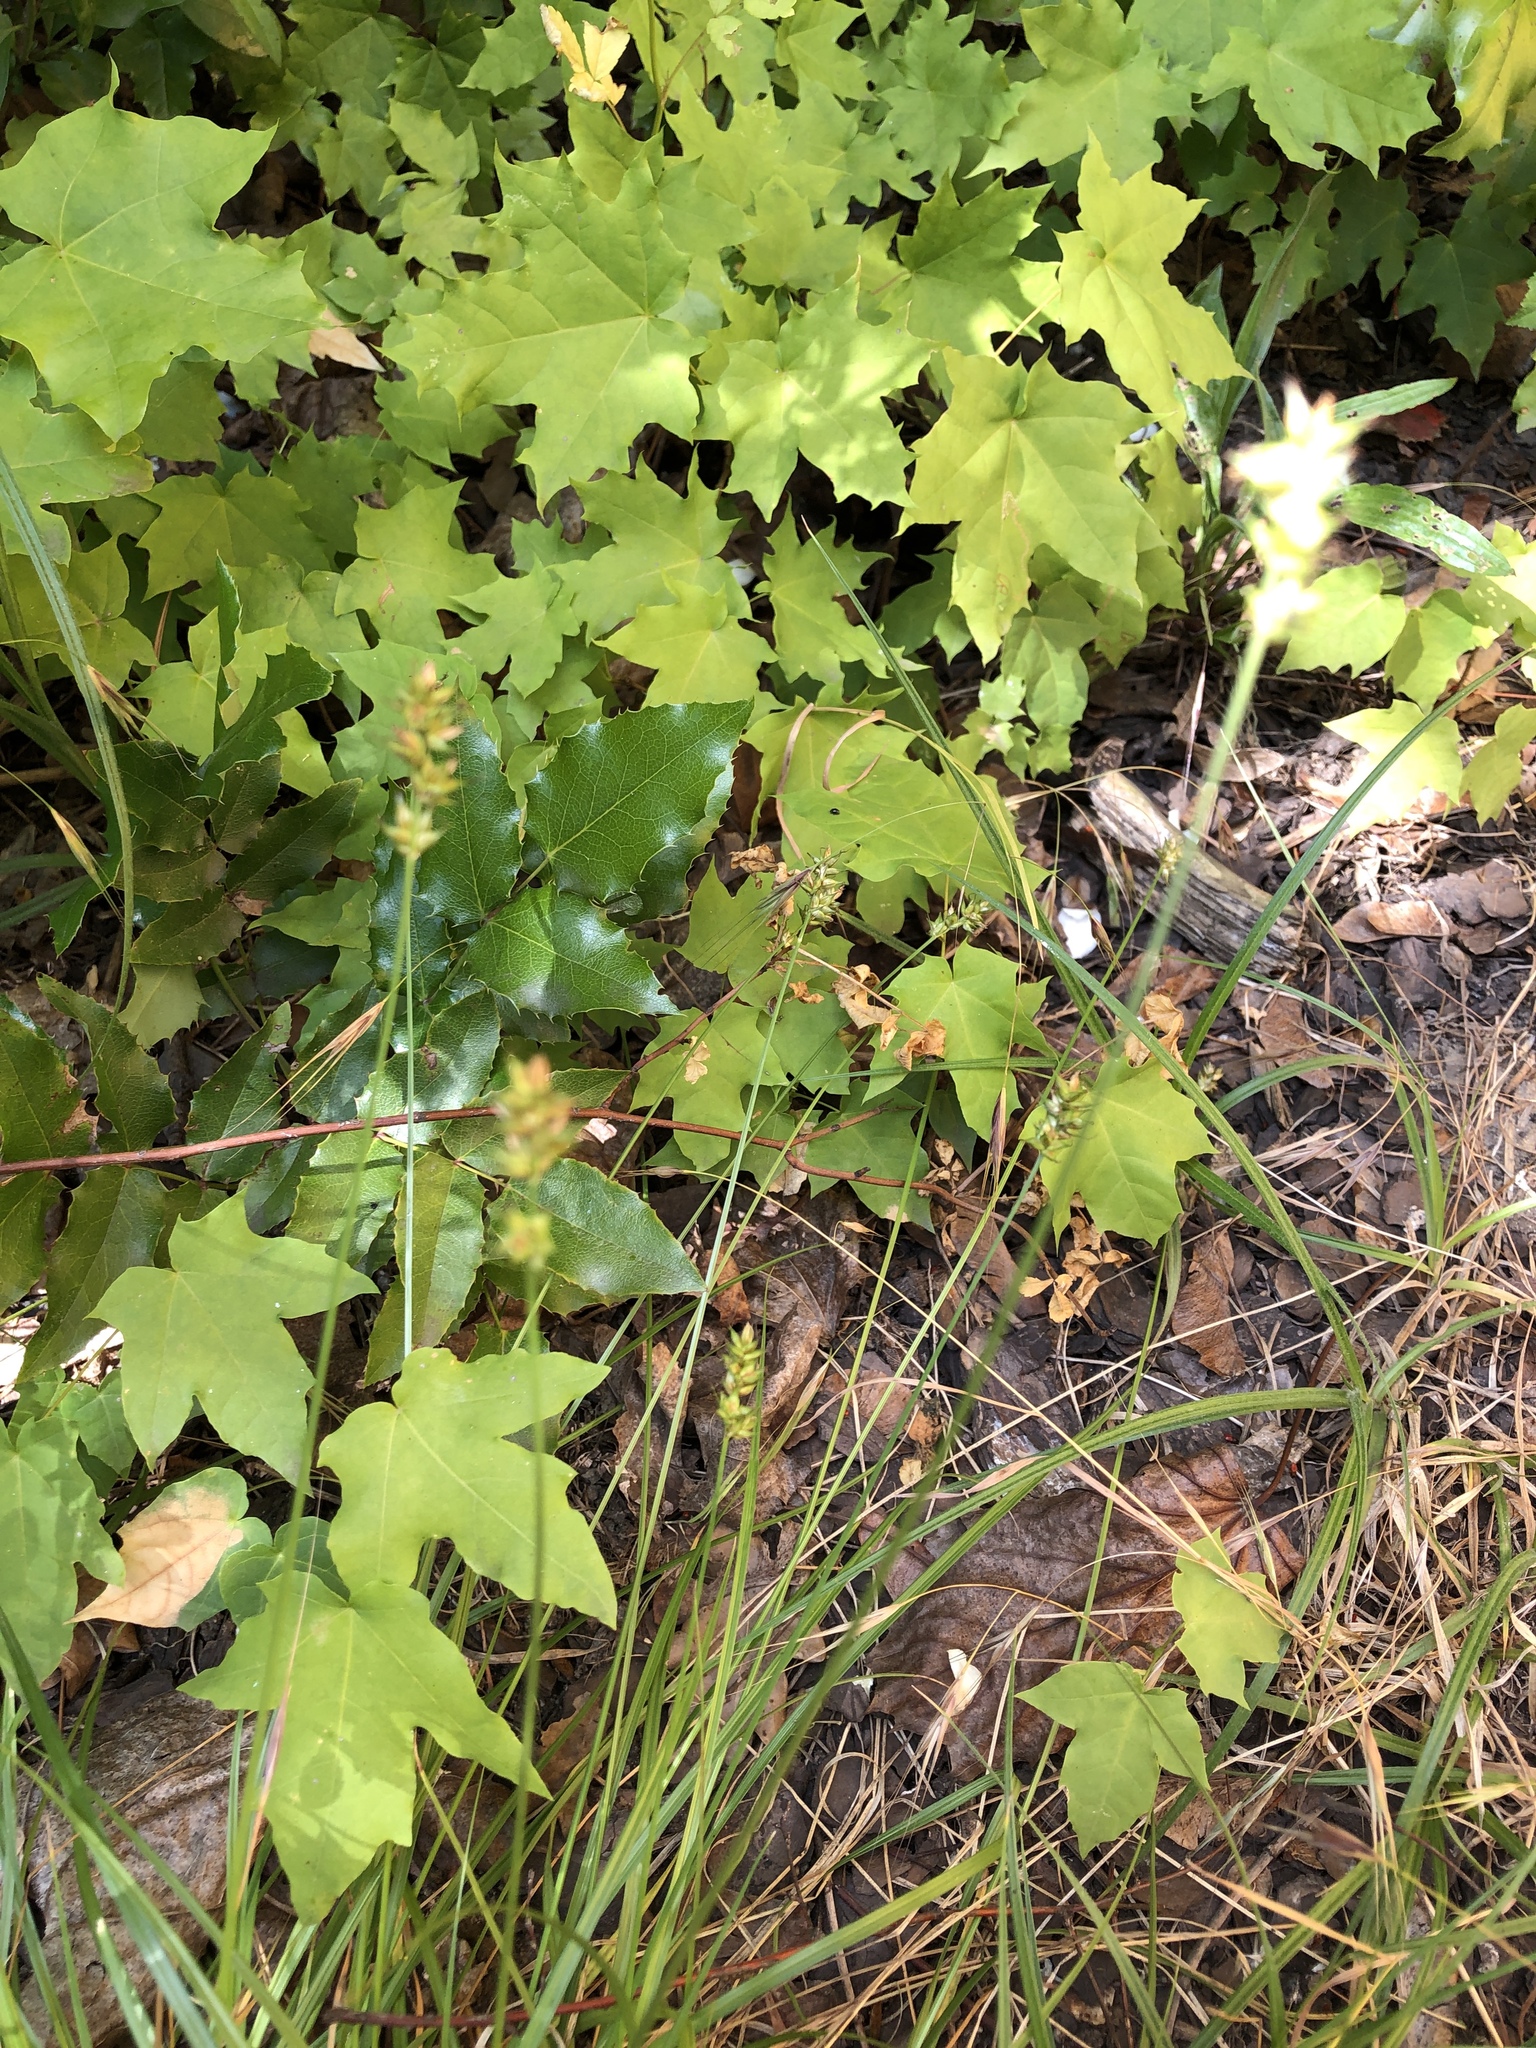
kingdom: Plantae
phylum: Tracheophyta
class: Liliopsida
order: Poales
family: Cyperaceae
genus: Carex
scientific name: Carex spicata
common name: Spiked sedge
